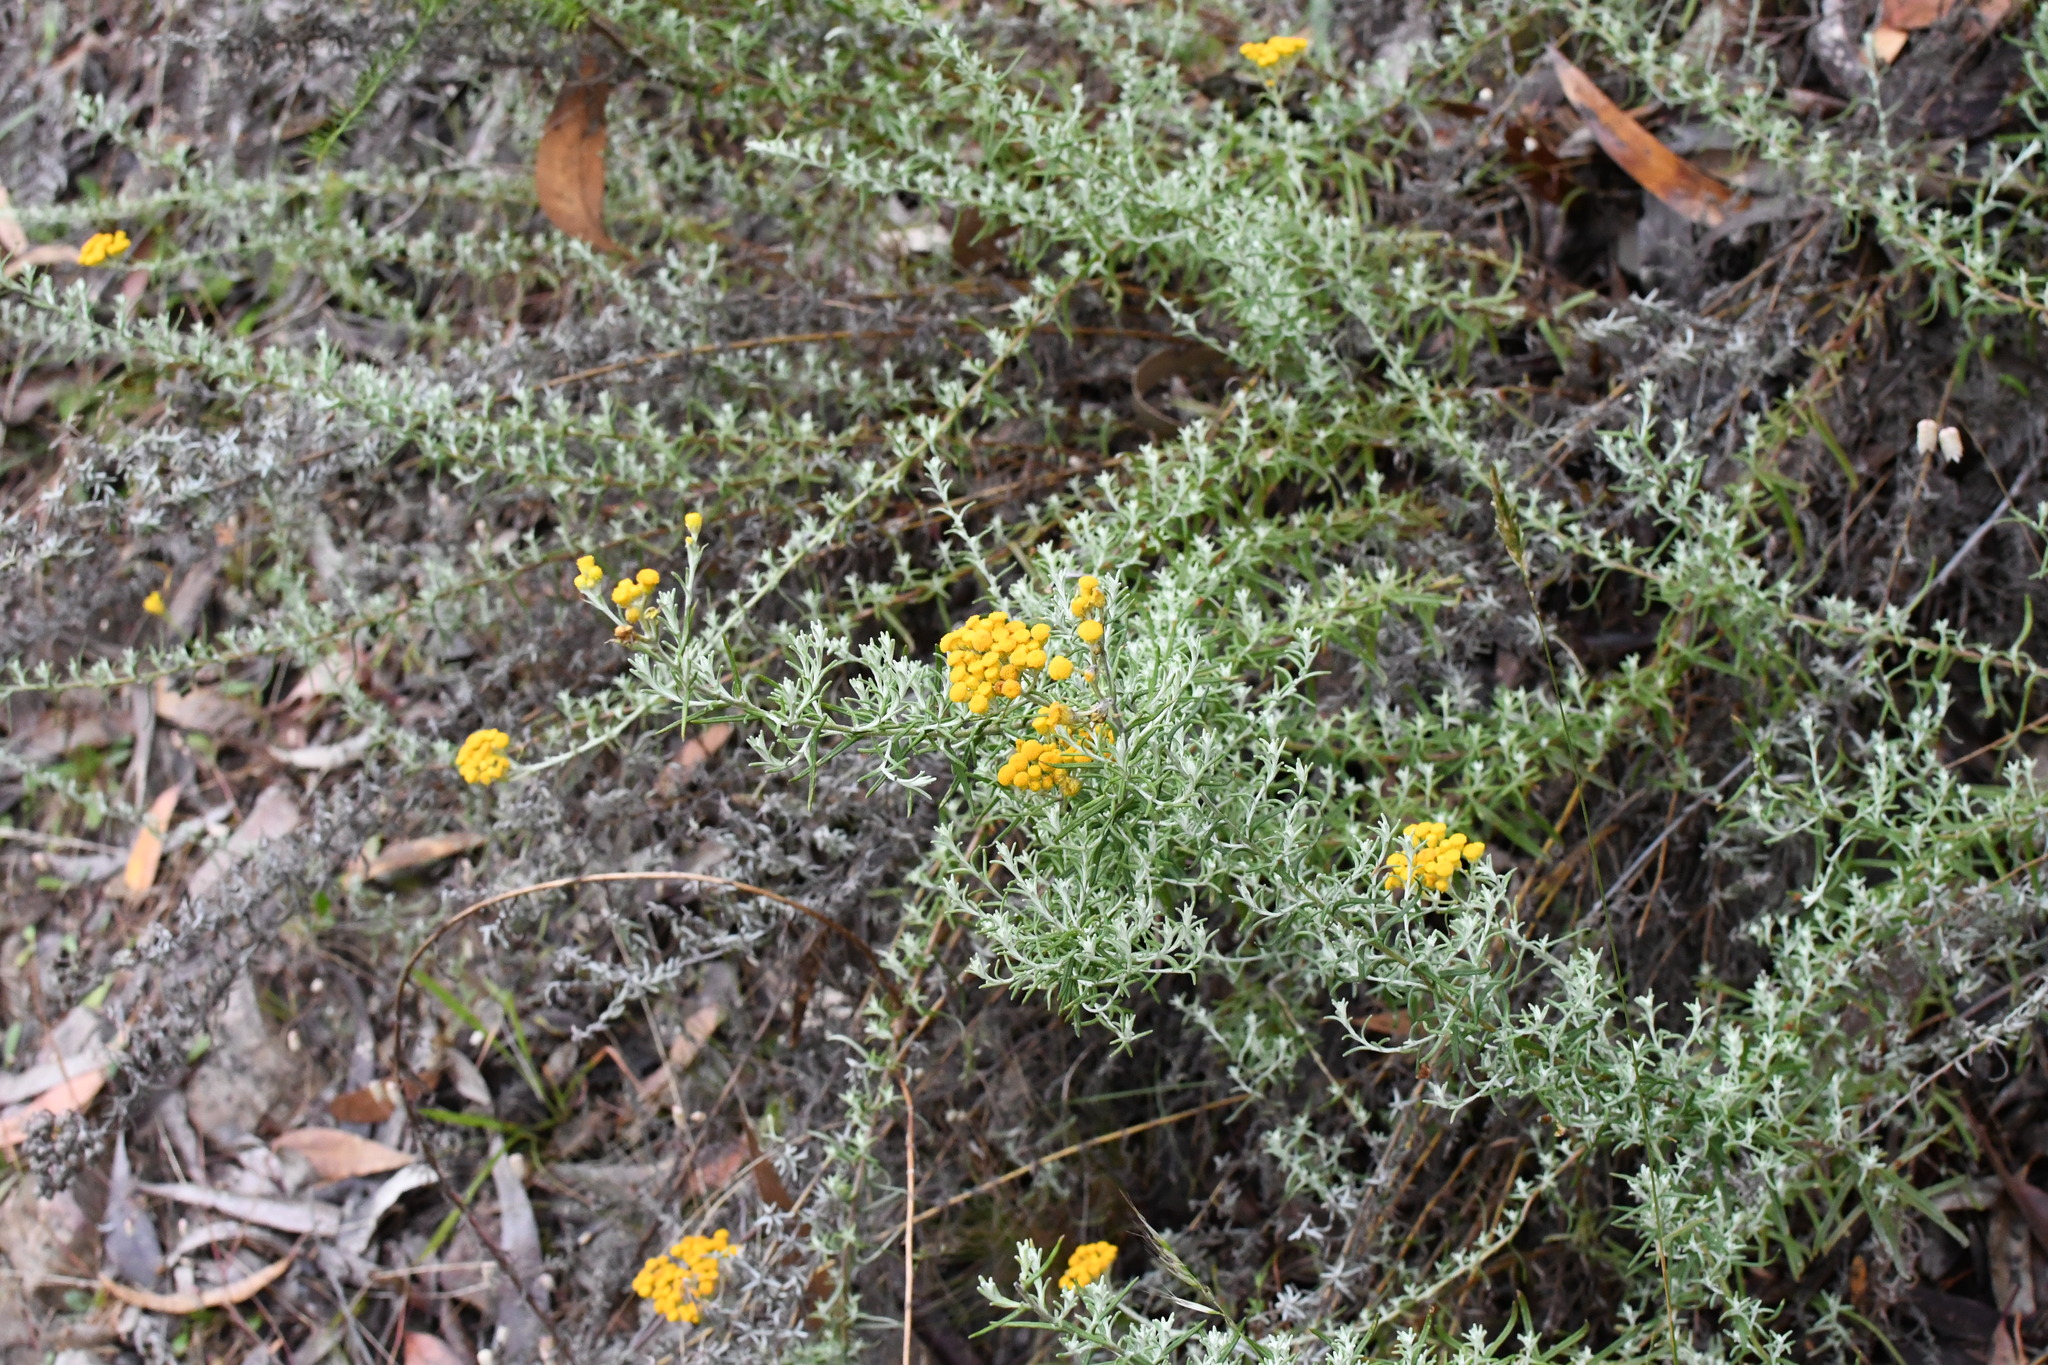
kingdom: Plantae
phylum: Tracheophyta
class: Magnoliopsida
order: Asterales
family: Asteraceae
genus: Chrysocephalum
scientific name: Chrysocephalum semipapposum
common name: Clustered everlasting
